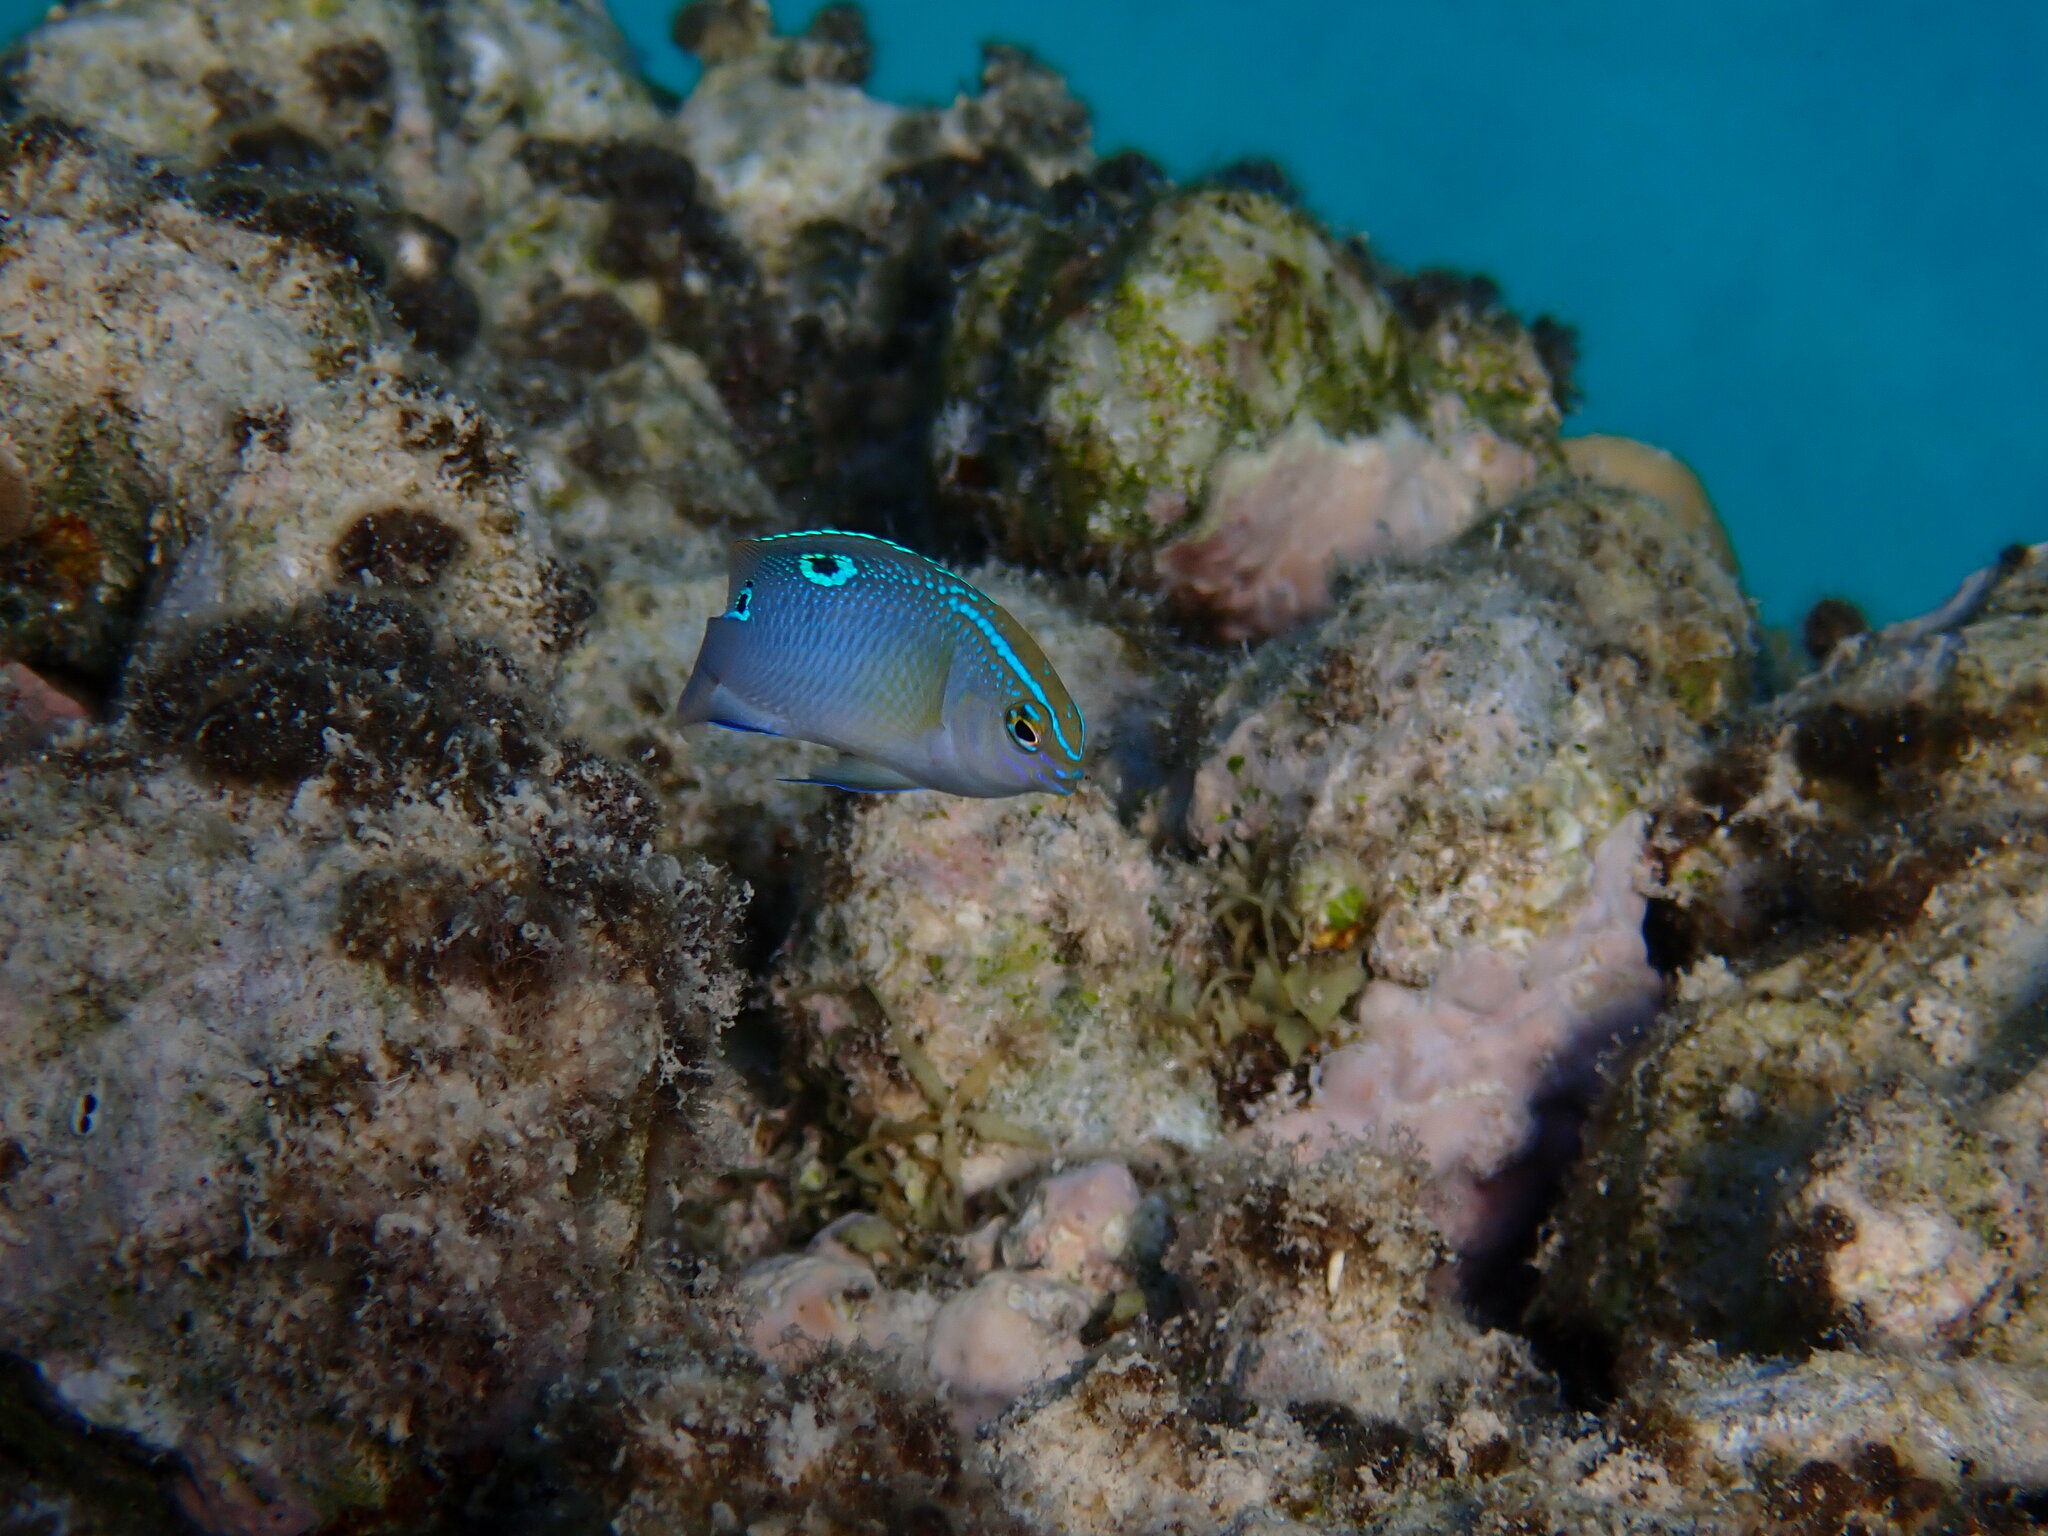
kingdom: Animalia
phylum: Chordata
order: Perciformes
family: Pomacentridae
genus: Chrysiptera
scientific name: Chrysiptera unimaculata
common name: Onespot demoiselle
